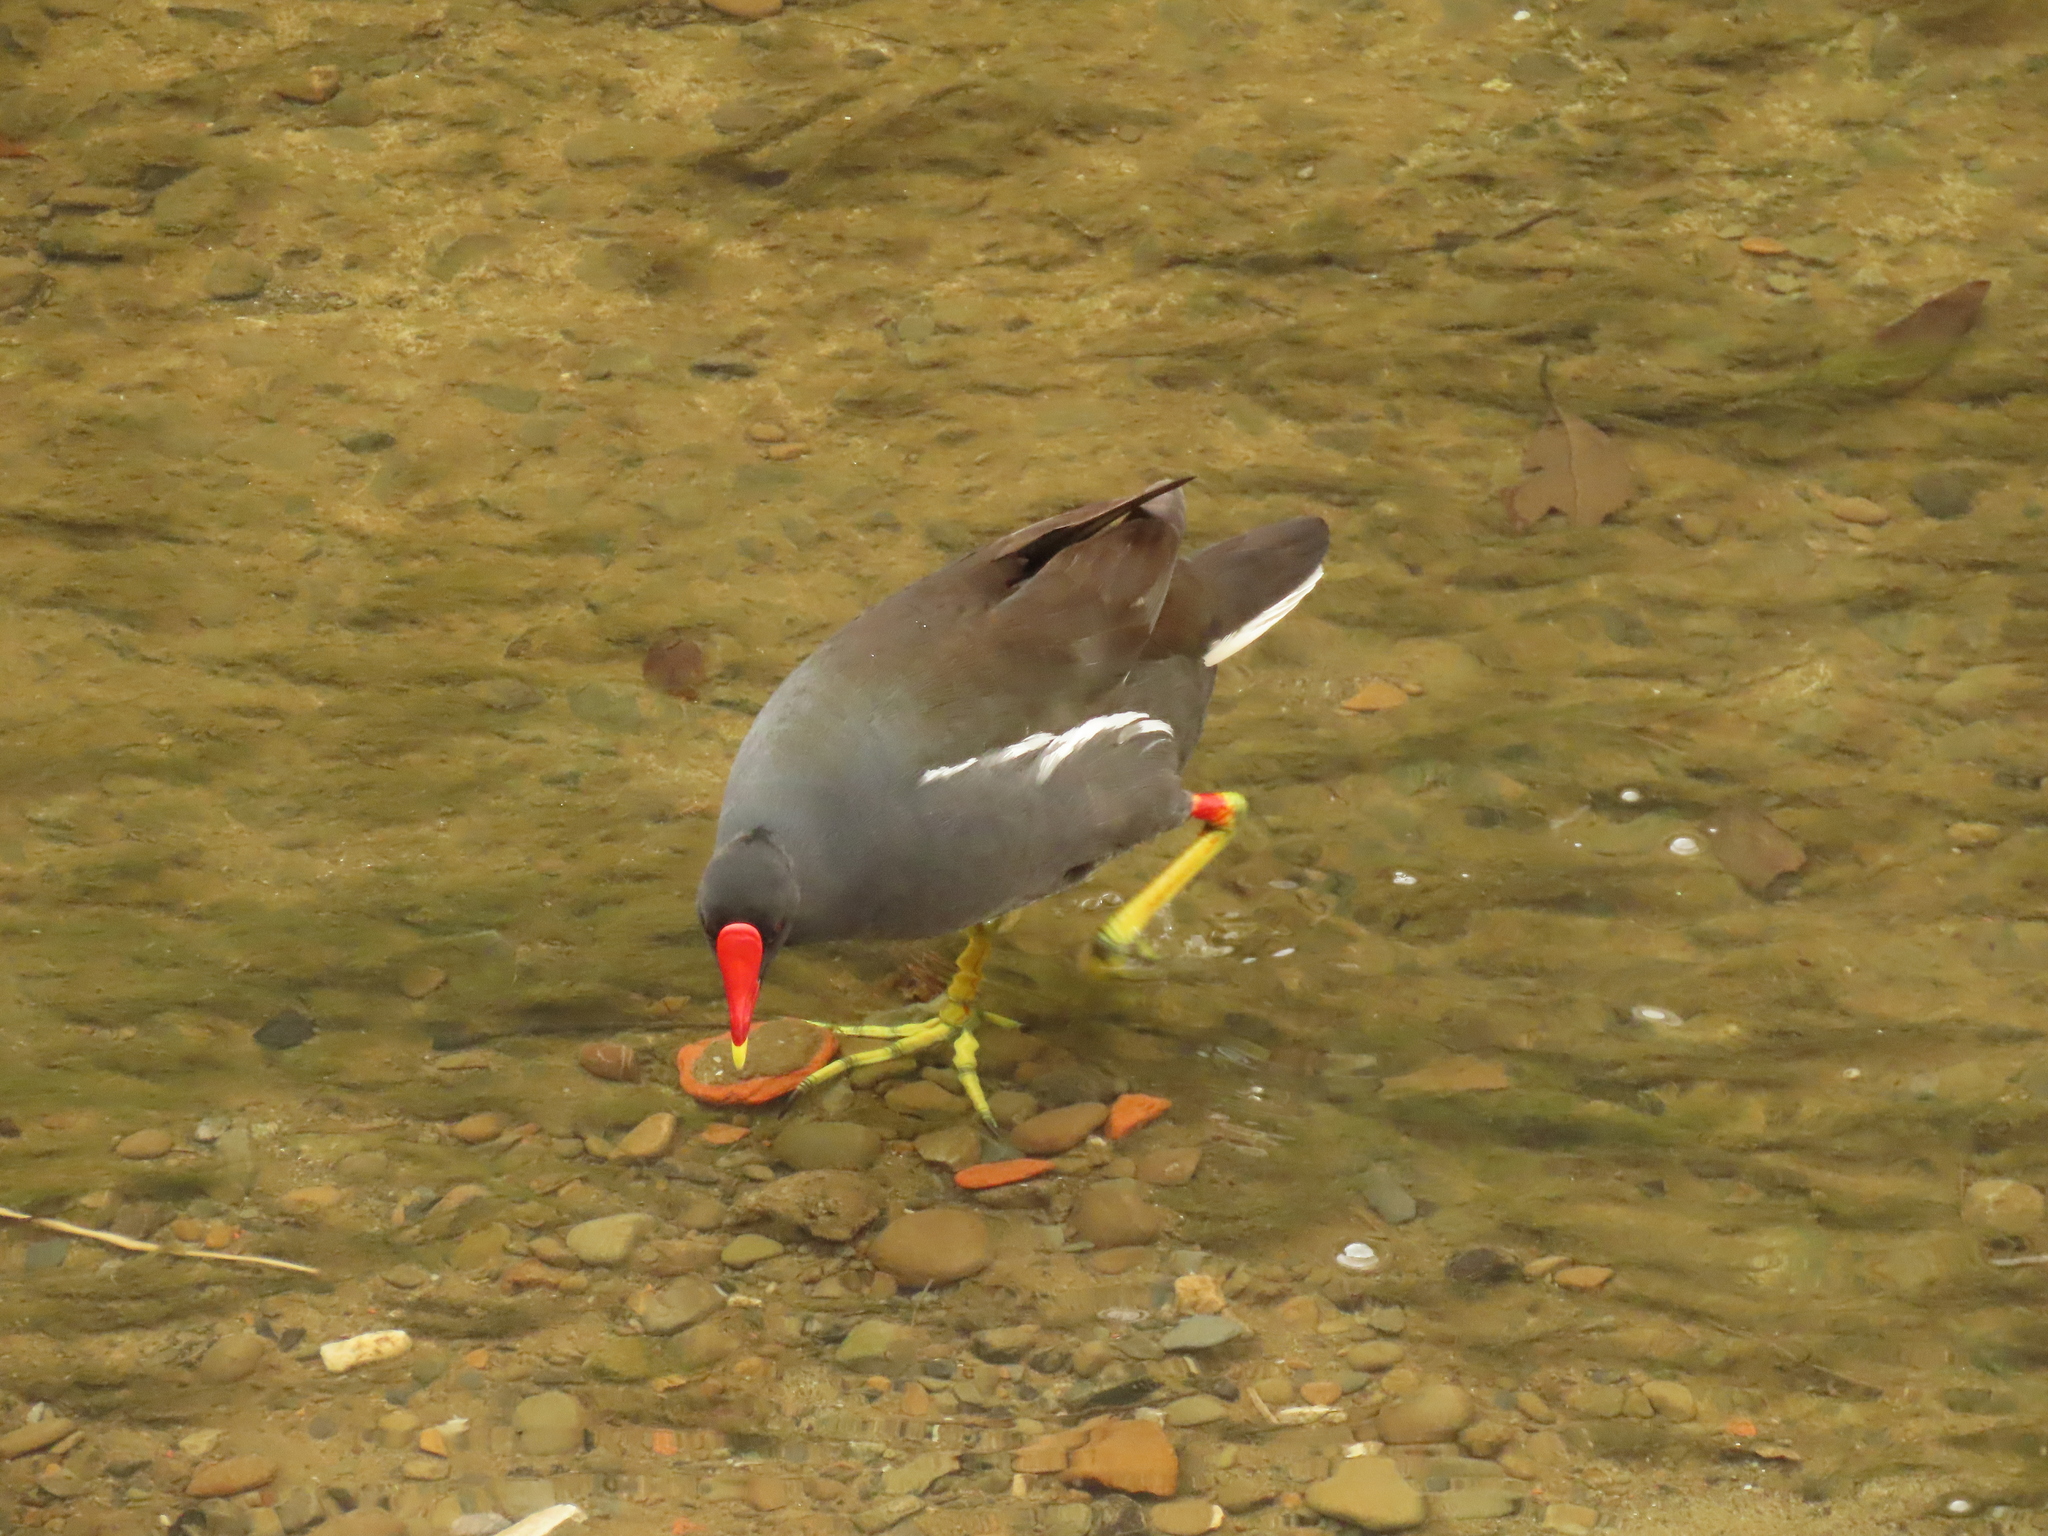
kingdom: Animalia
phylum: Chordata
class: Aves
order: Gruiformes
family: Rallidae
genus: Gallinula
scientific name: Gallinula chloropus
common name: Common moorhen
